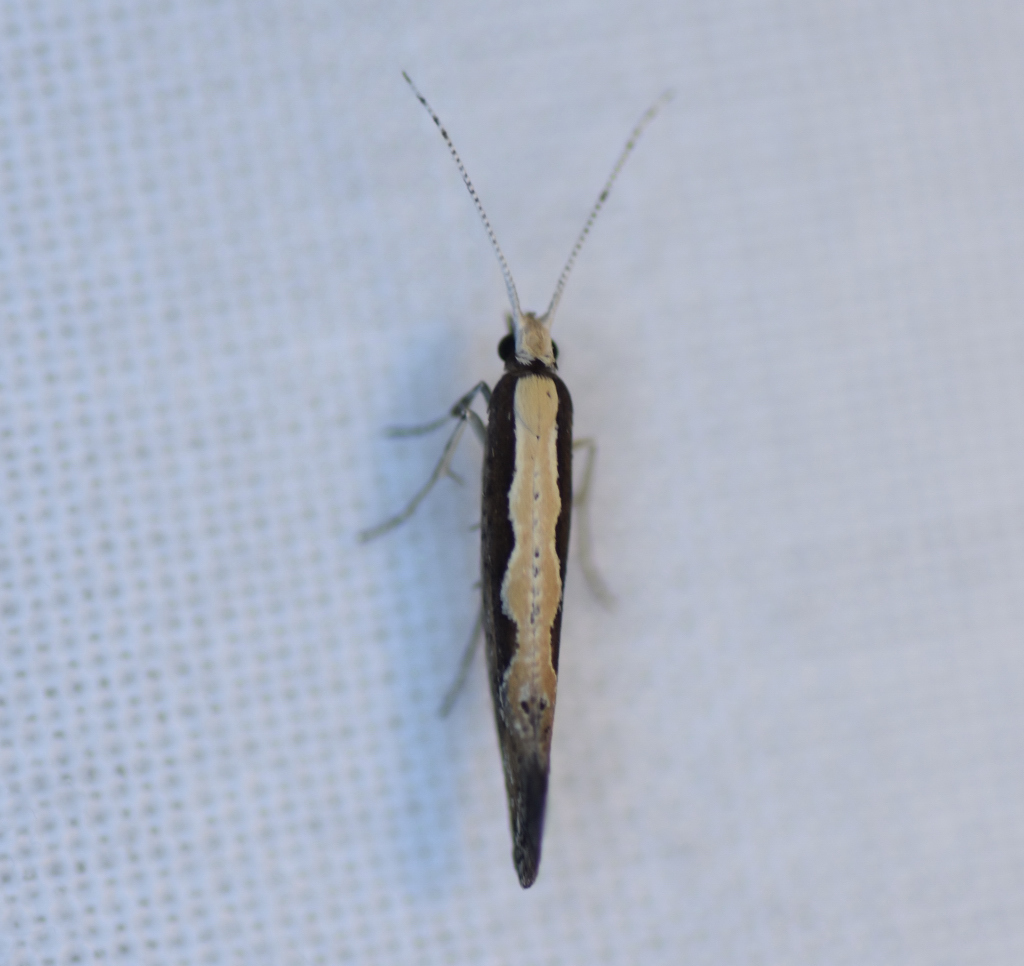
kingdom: Animalia
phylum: Arthropoda
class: Insecta
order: Lepidoptera
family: Plutellidae
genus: Plutella
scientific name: Plutella xylostella
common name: Diamond-back moth
